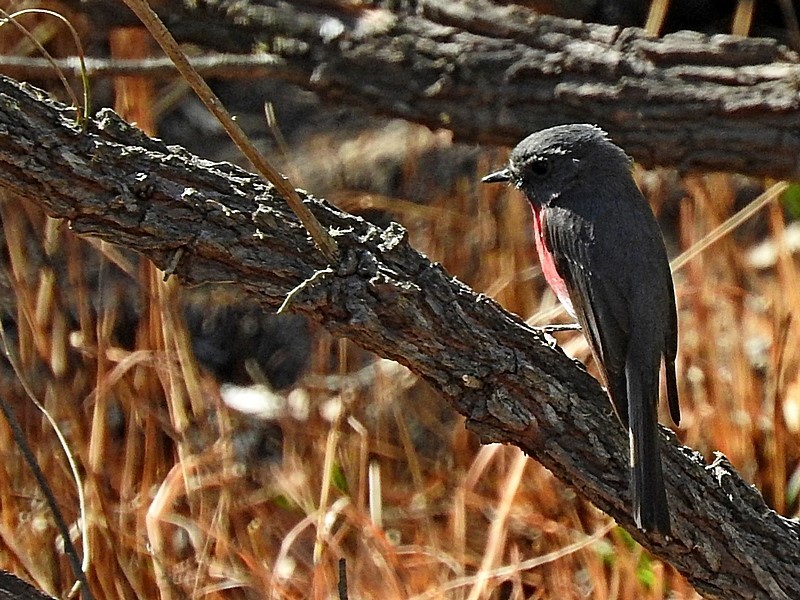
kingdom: Animalia
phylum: Chordata
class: Aves
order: Passeriformes
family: Petroicidae
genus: Petroica
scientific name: Petroica rosea
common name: Rose robin
